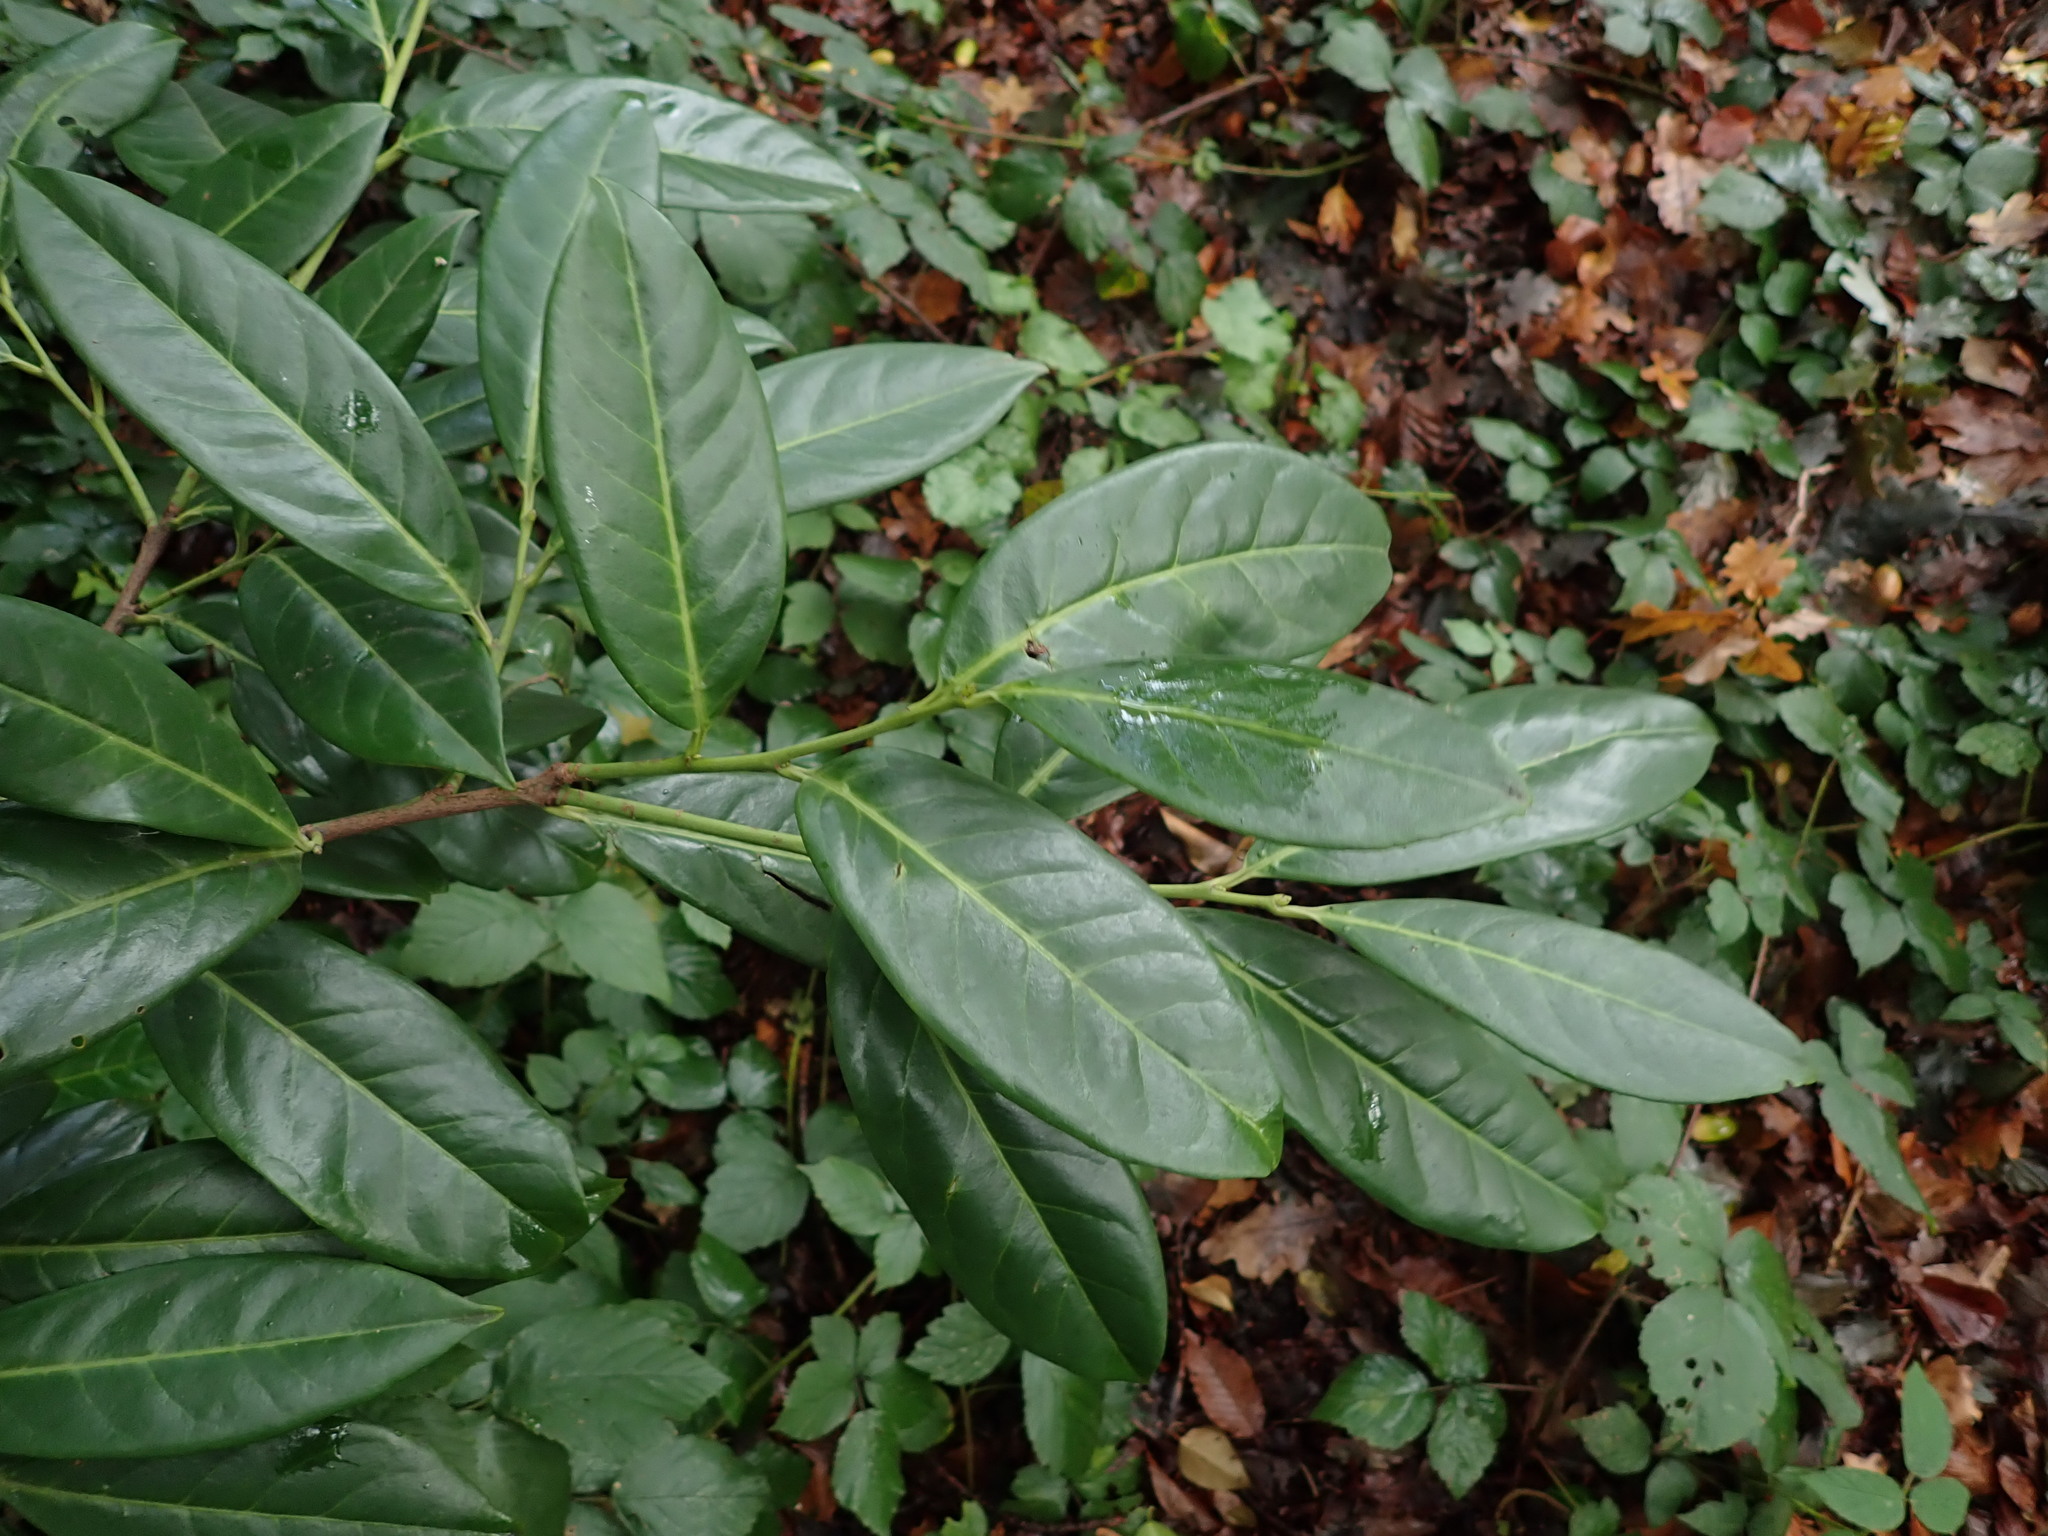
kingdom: Plantae
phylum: Tracheophyta
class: Magnoliopsida
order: Rosales
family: Rosaceae
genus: Prunus
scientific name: Prunus laurocerasus
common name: Cherry laurel
